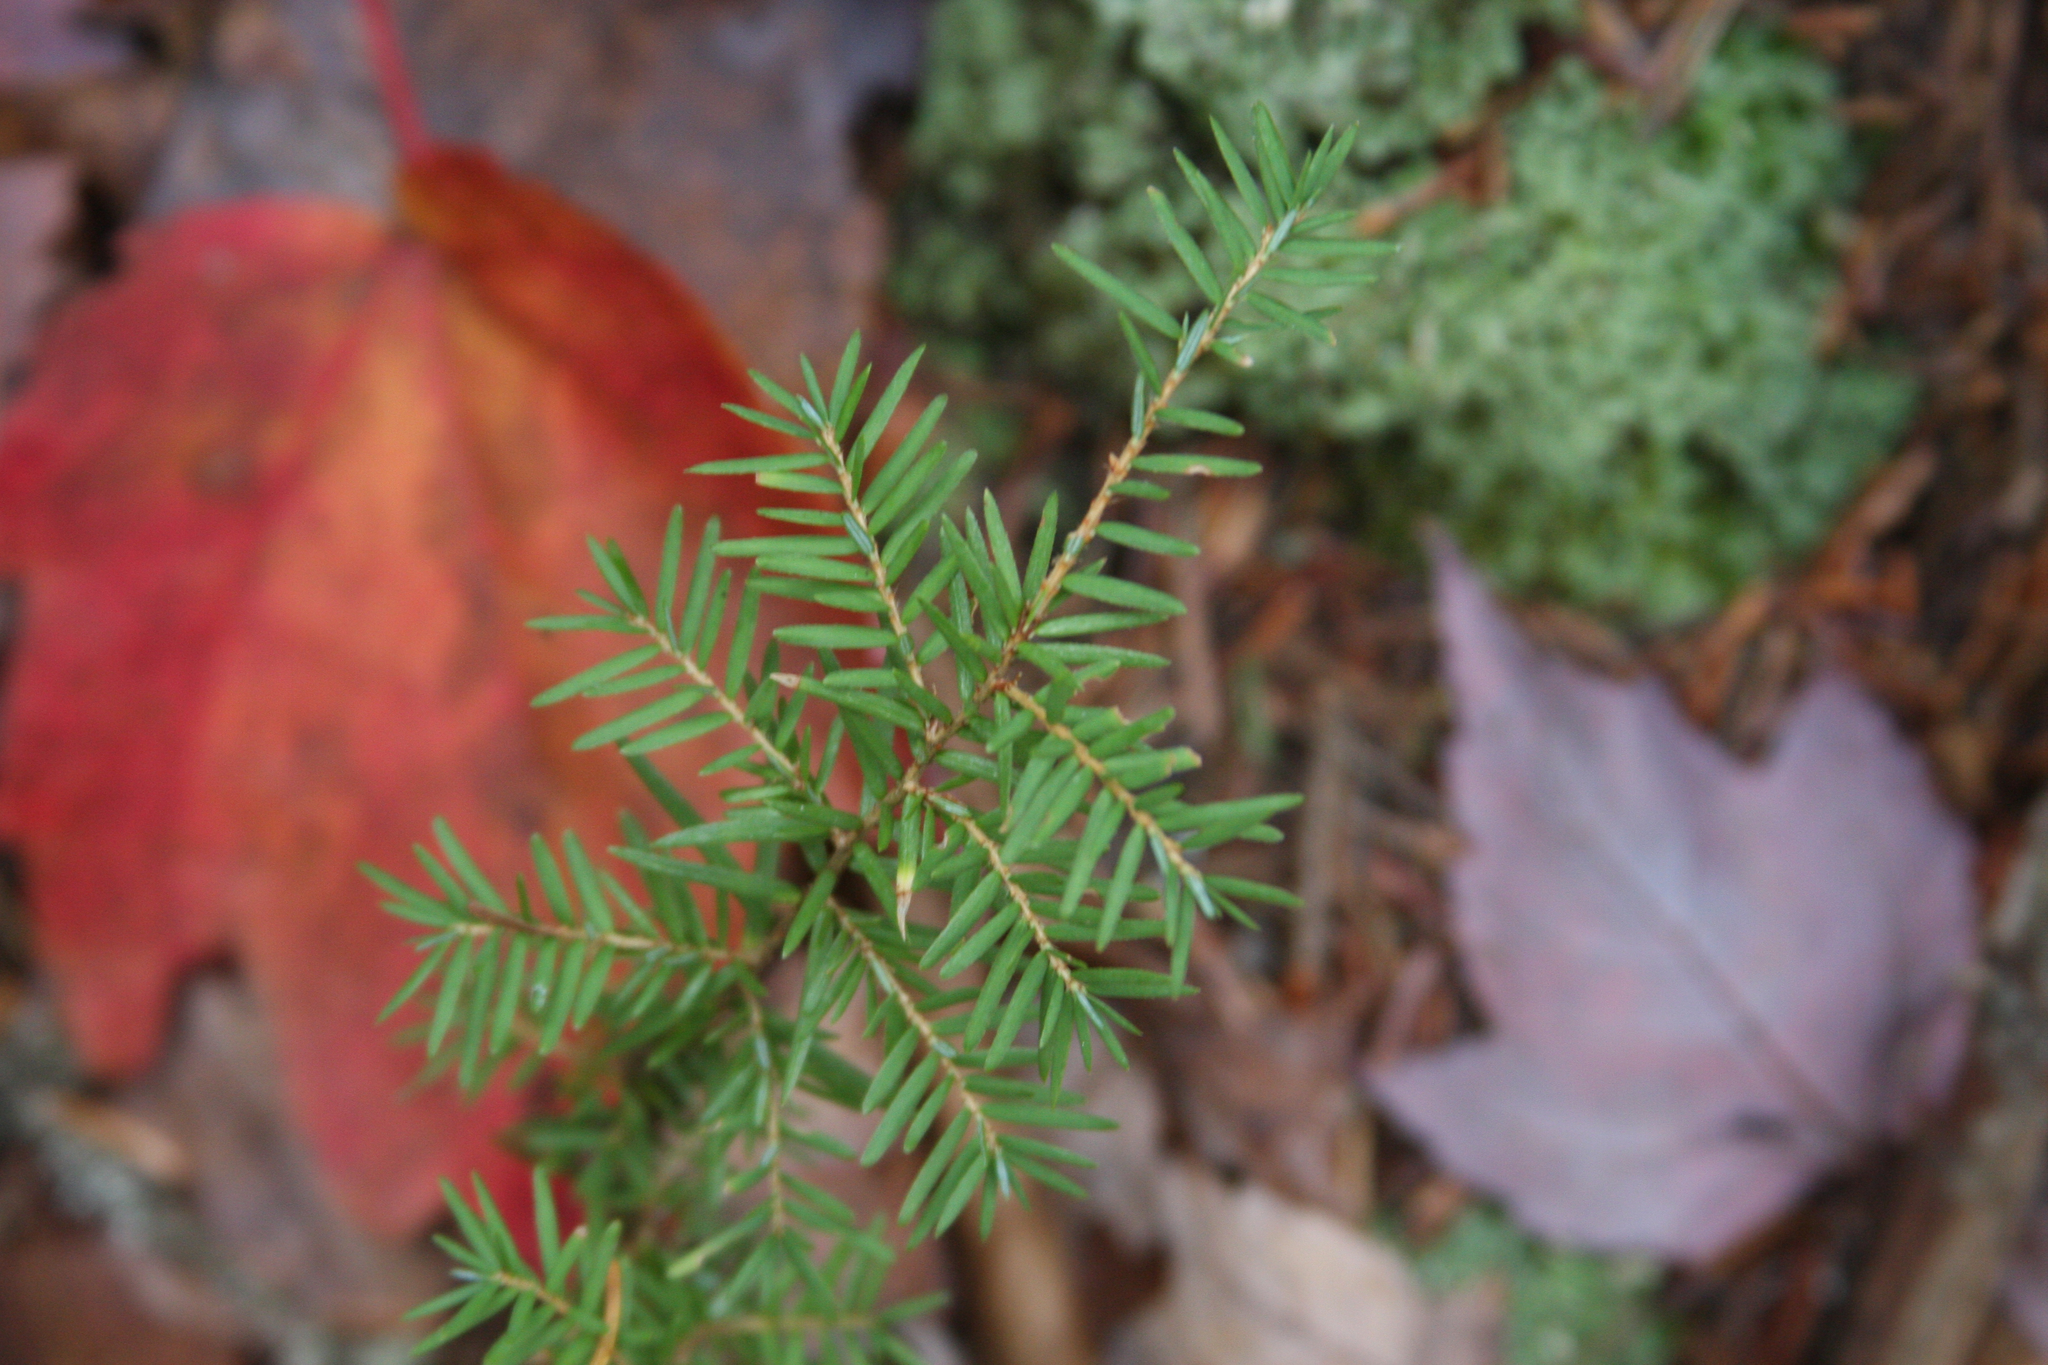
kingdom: Plantae
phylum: Tracheophyta
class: Pinopsida
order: Pinales
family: Pinaceae
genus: Tsuga
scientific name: Tsuga canadensis
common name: Eastern hemlock
